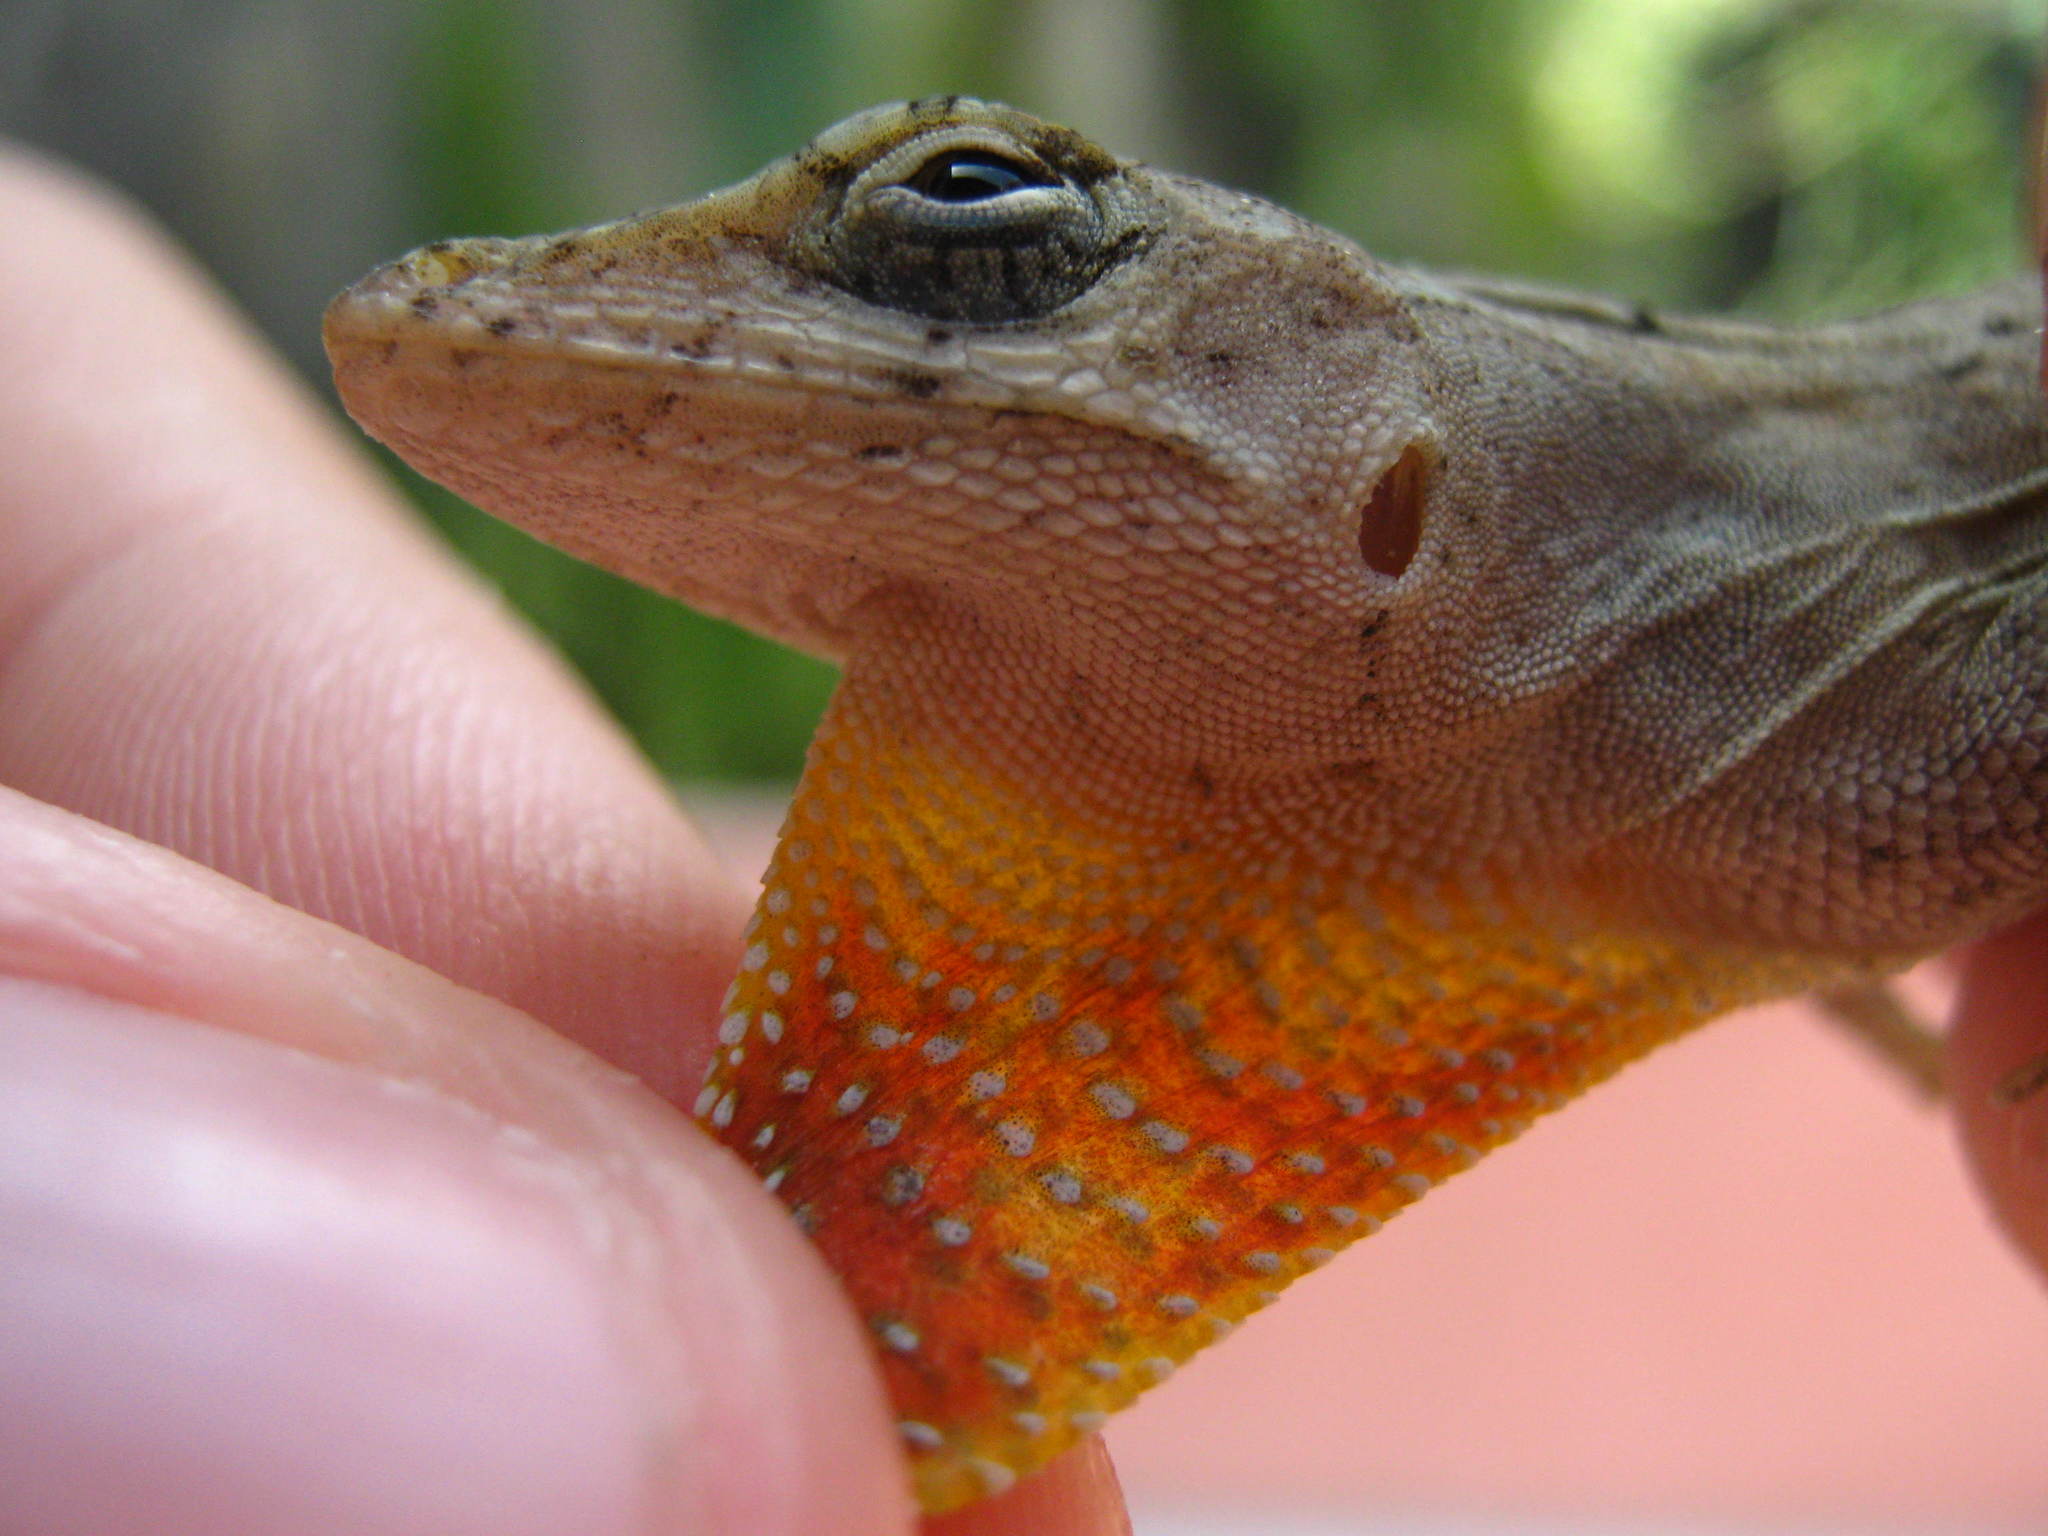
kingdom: Animalia
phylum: Chordata
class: Squamata
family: Dactyloidae
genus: Anolis
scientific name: Anolis sagrei
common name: Brown anole
